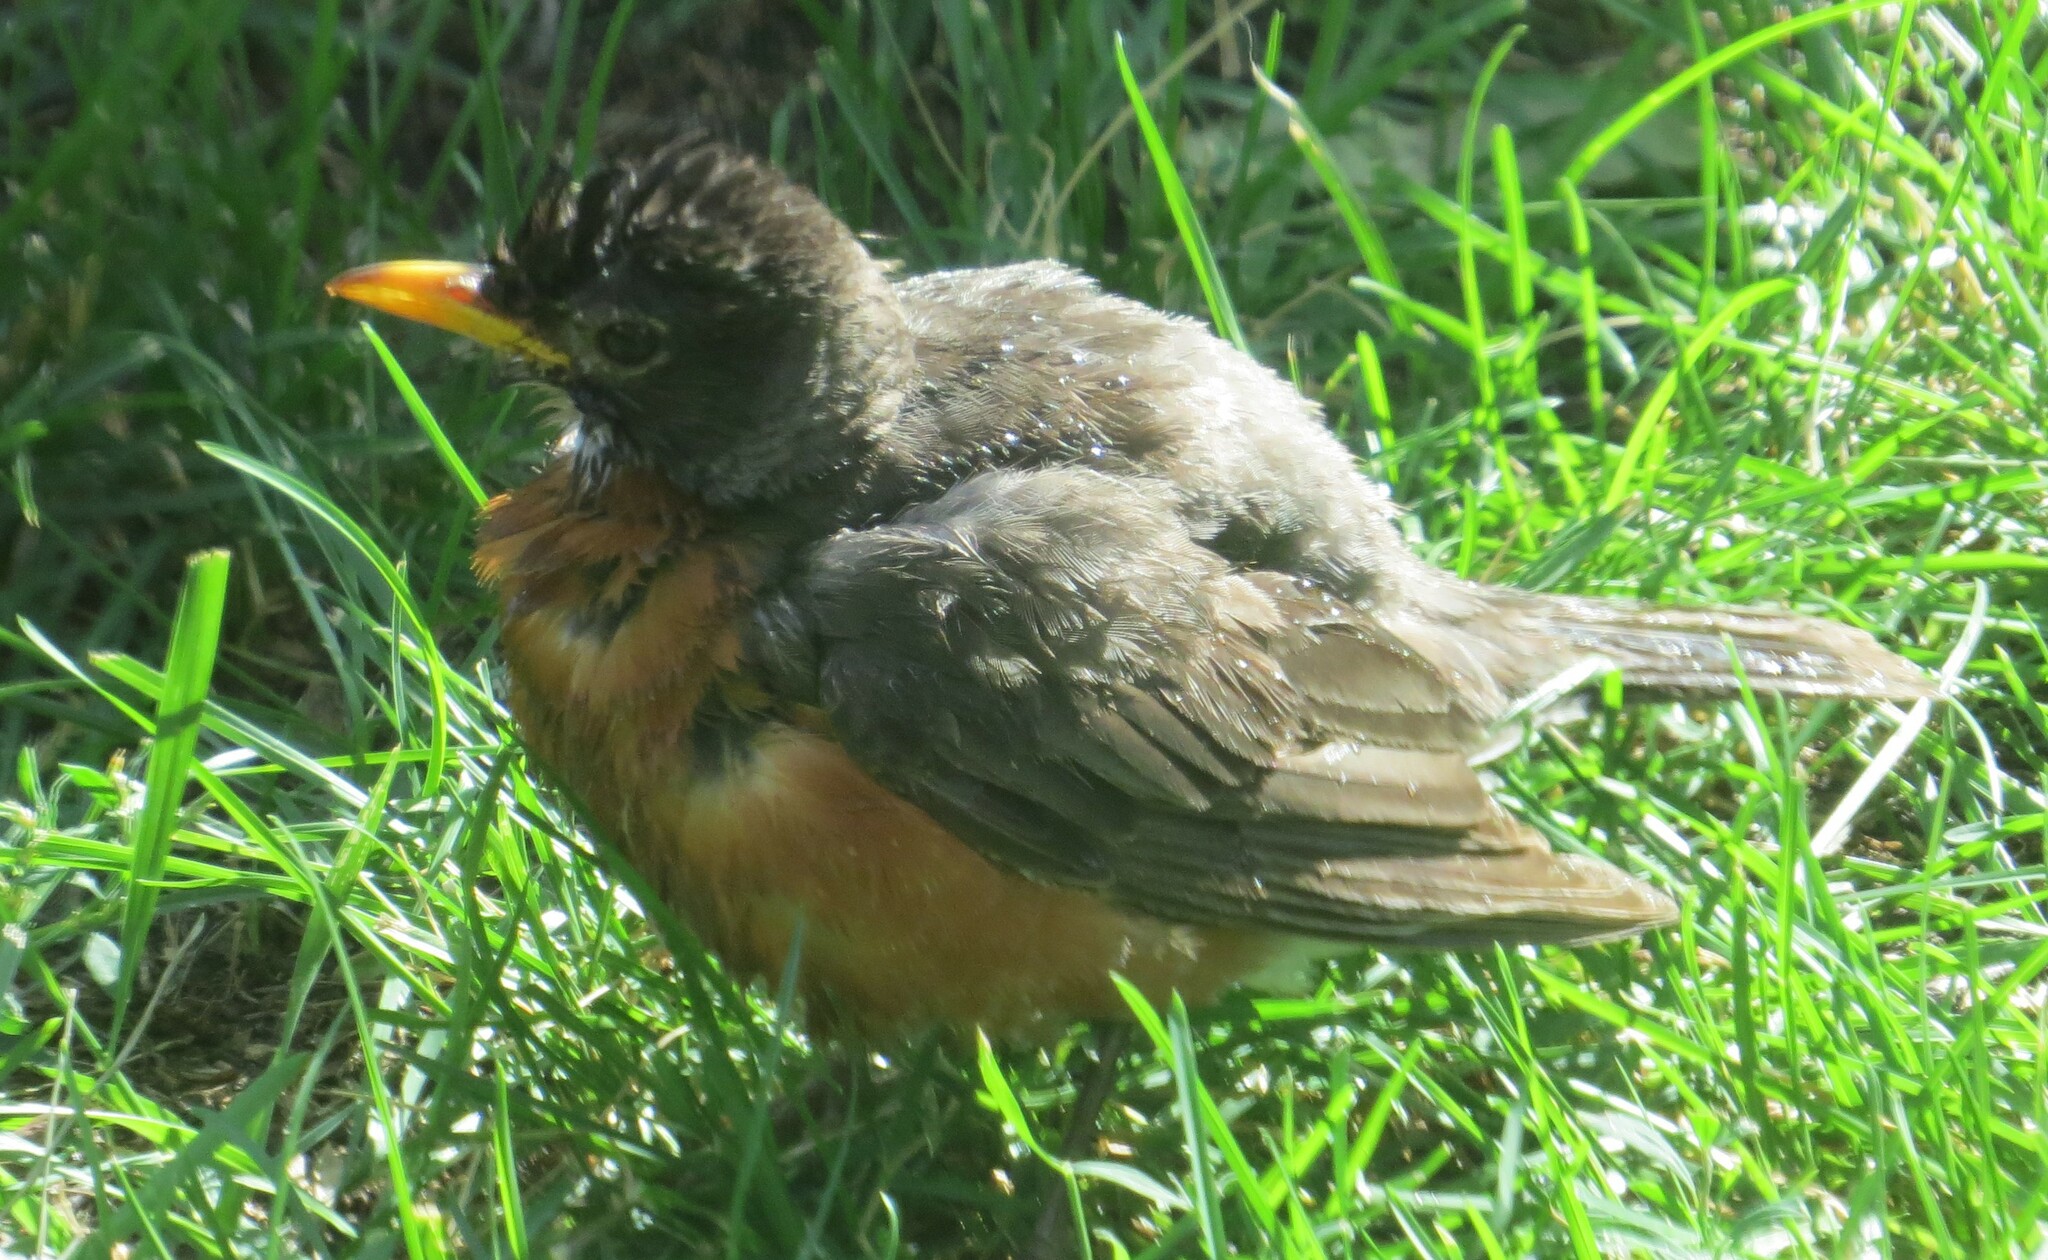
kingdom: Animalia
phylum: Chordata
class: Aves
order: Passeriformes
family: Turdidae
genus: Turdus
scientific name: Turdus migratorius
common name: American robin
